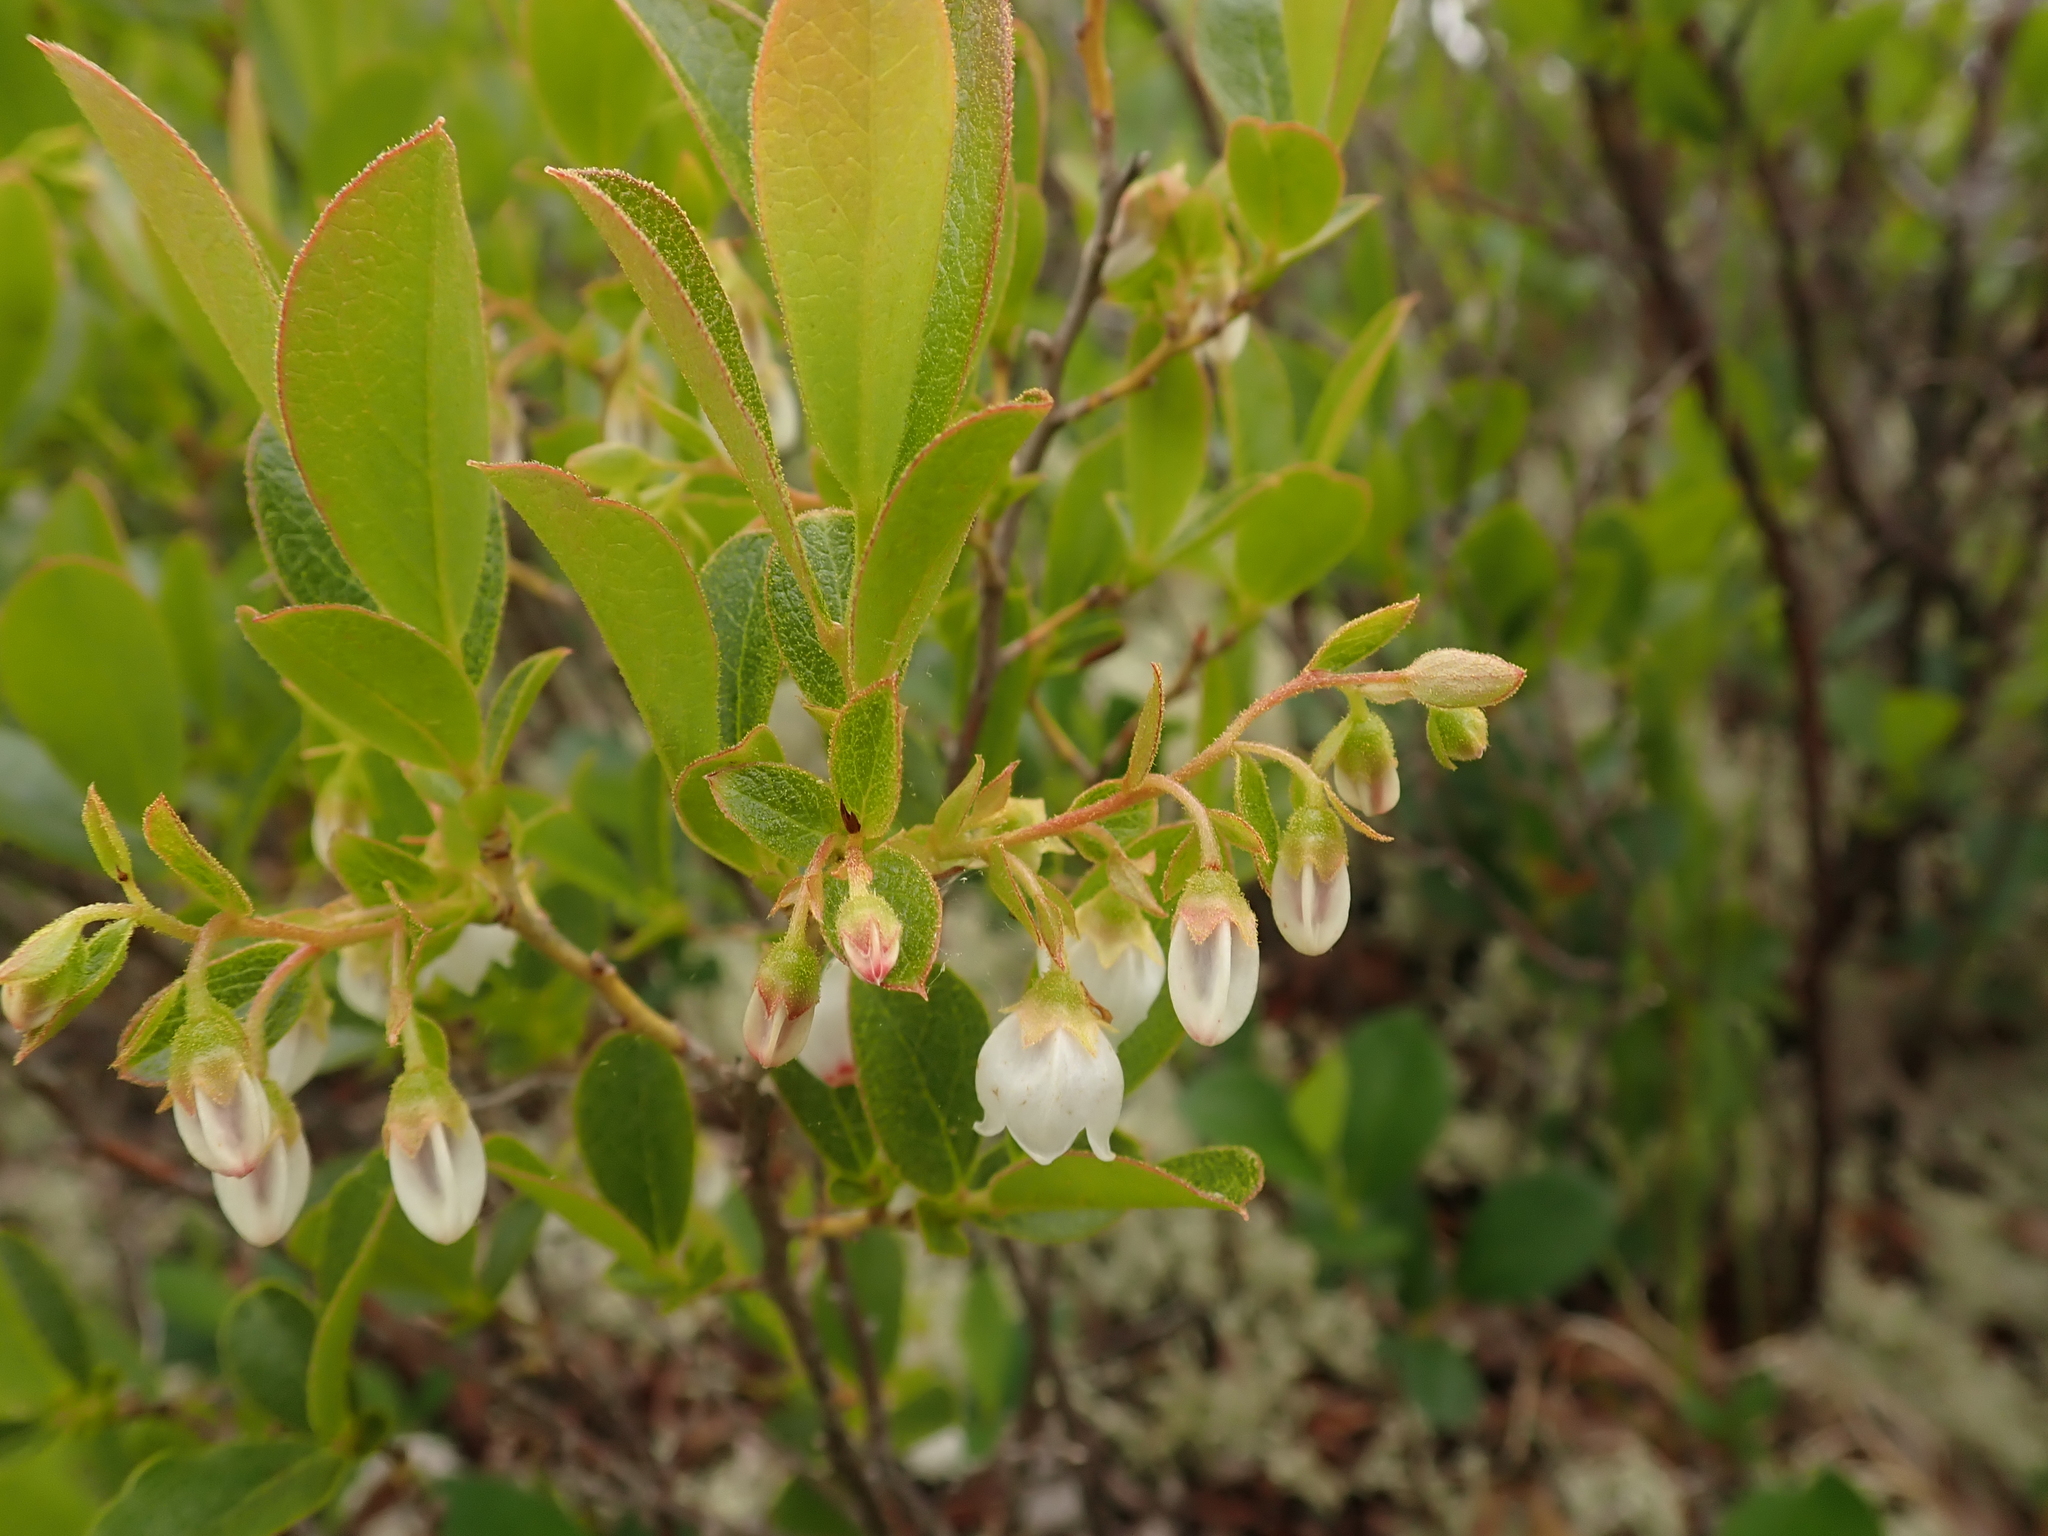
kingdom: Plantae
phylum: Tracheophyta
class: Magnoliopsida
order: Ericales
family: Ericaceae
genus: Gaylussacia
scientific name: Gaylussacia bigeloviana
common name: Bog huckleberry
